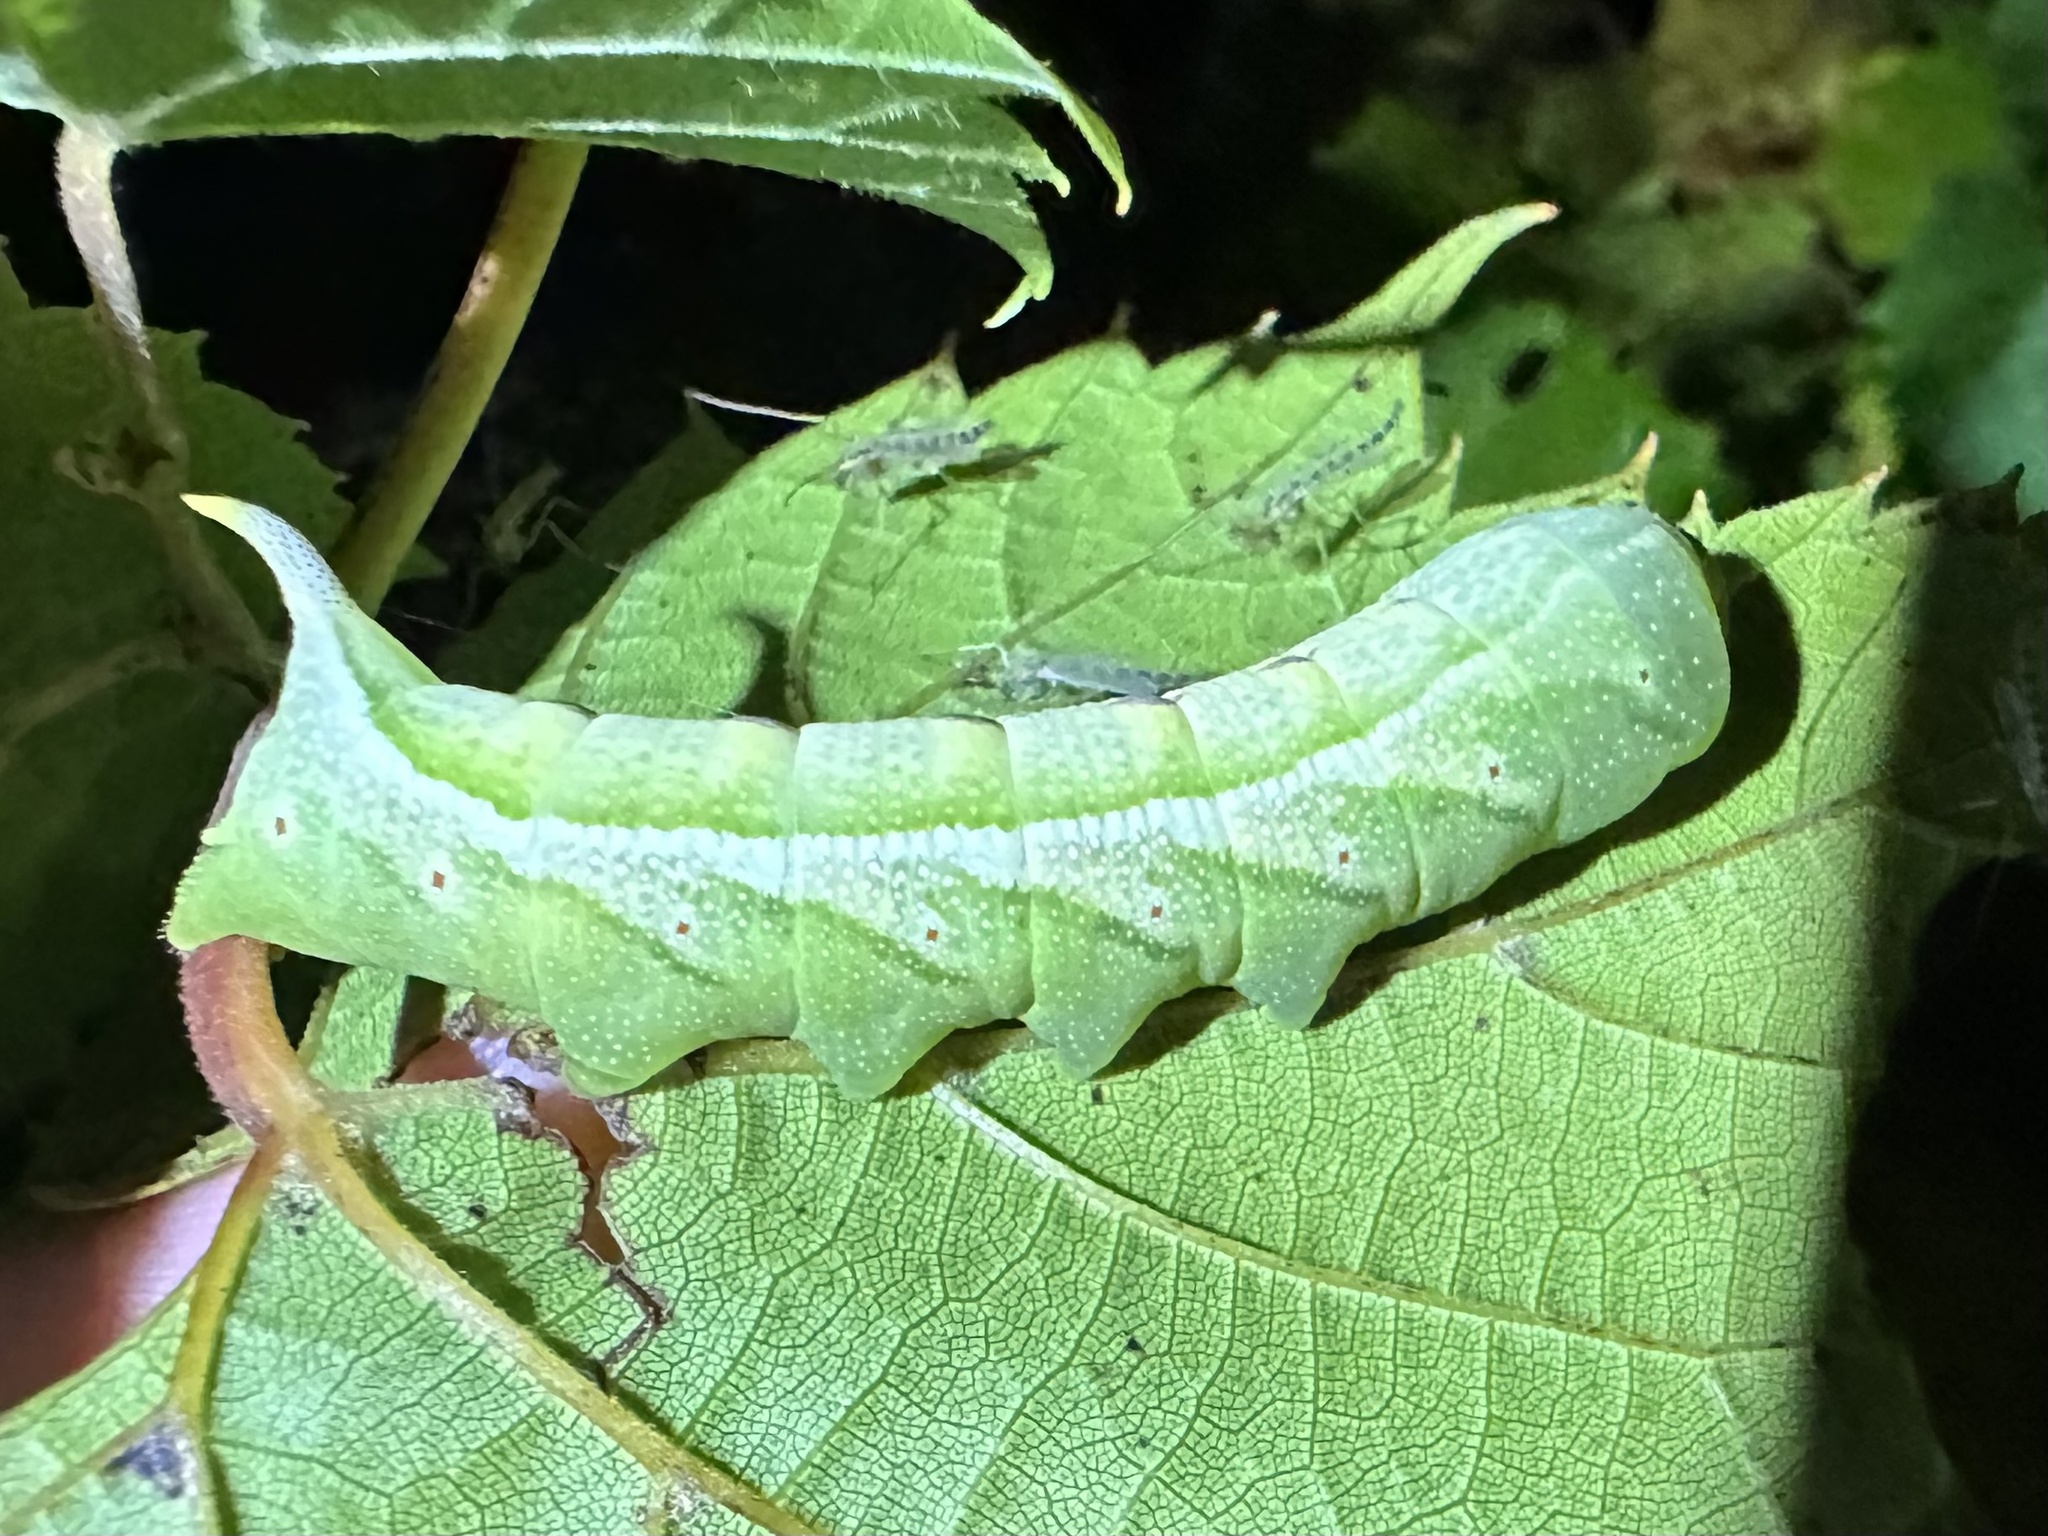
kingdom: Animalia
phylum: Arthropoda
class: Insecta
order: Lepidoptera
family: Sphingidae
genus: Darapsa
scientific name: Darapsa myron
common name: Hog sphinx
